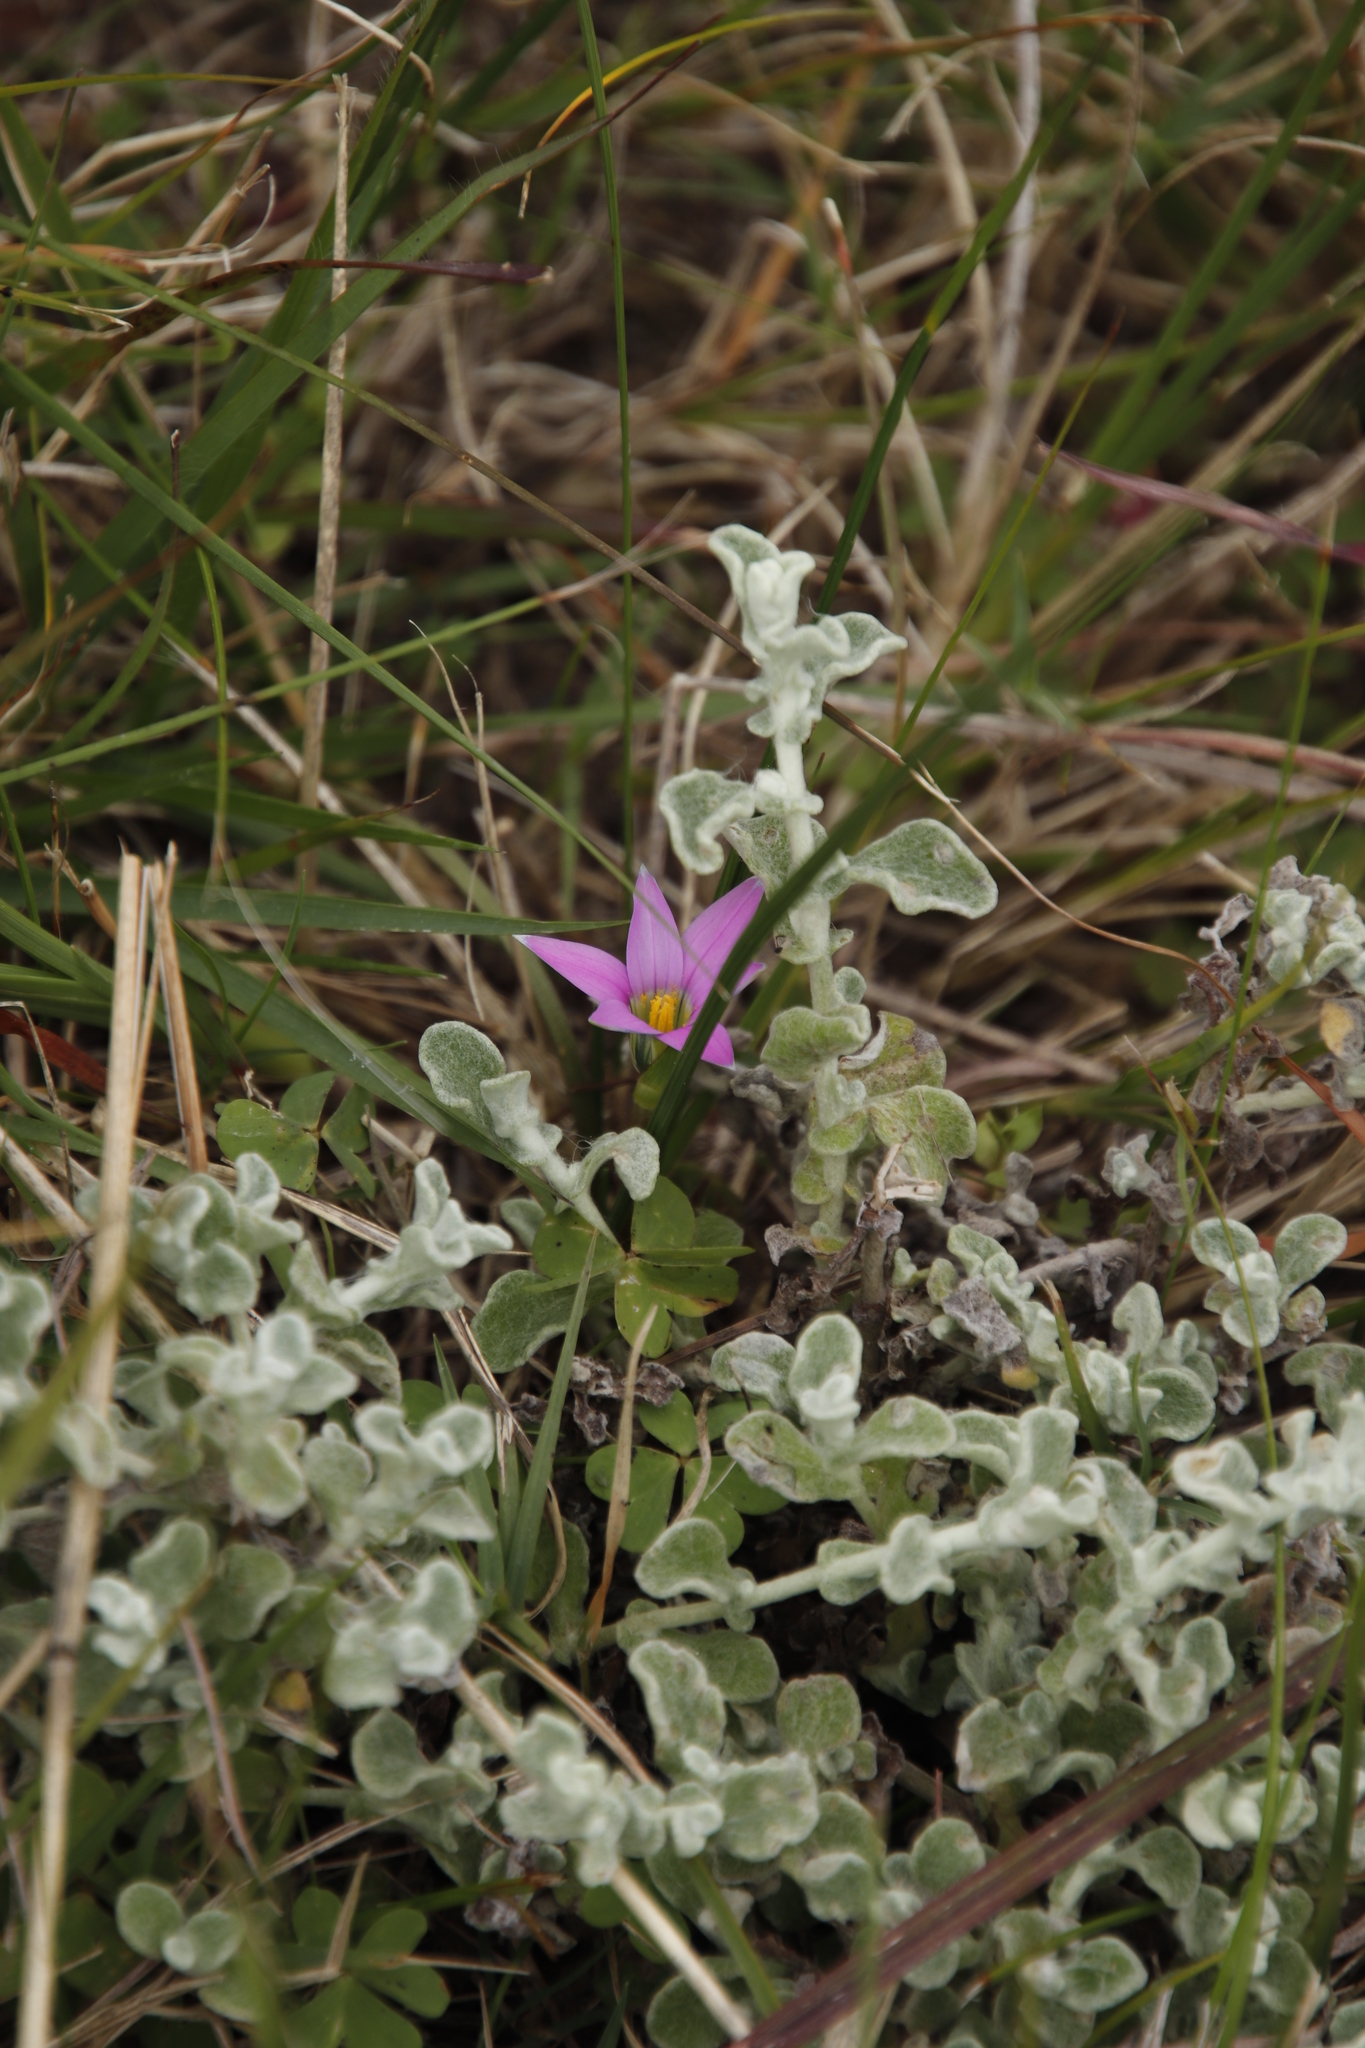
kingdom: Plantae
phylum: Tracheophyta
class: Magnoliopsida
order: Asterales
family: Asteraceae
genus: Helichrysum
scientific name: Helichrysum patulum
